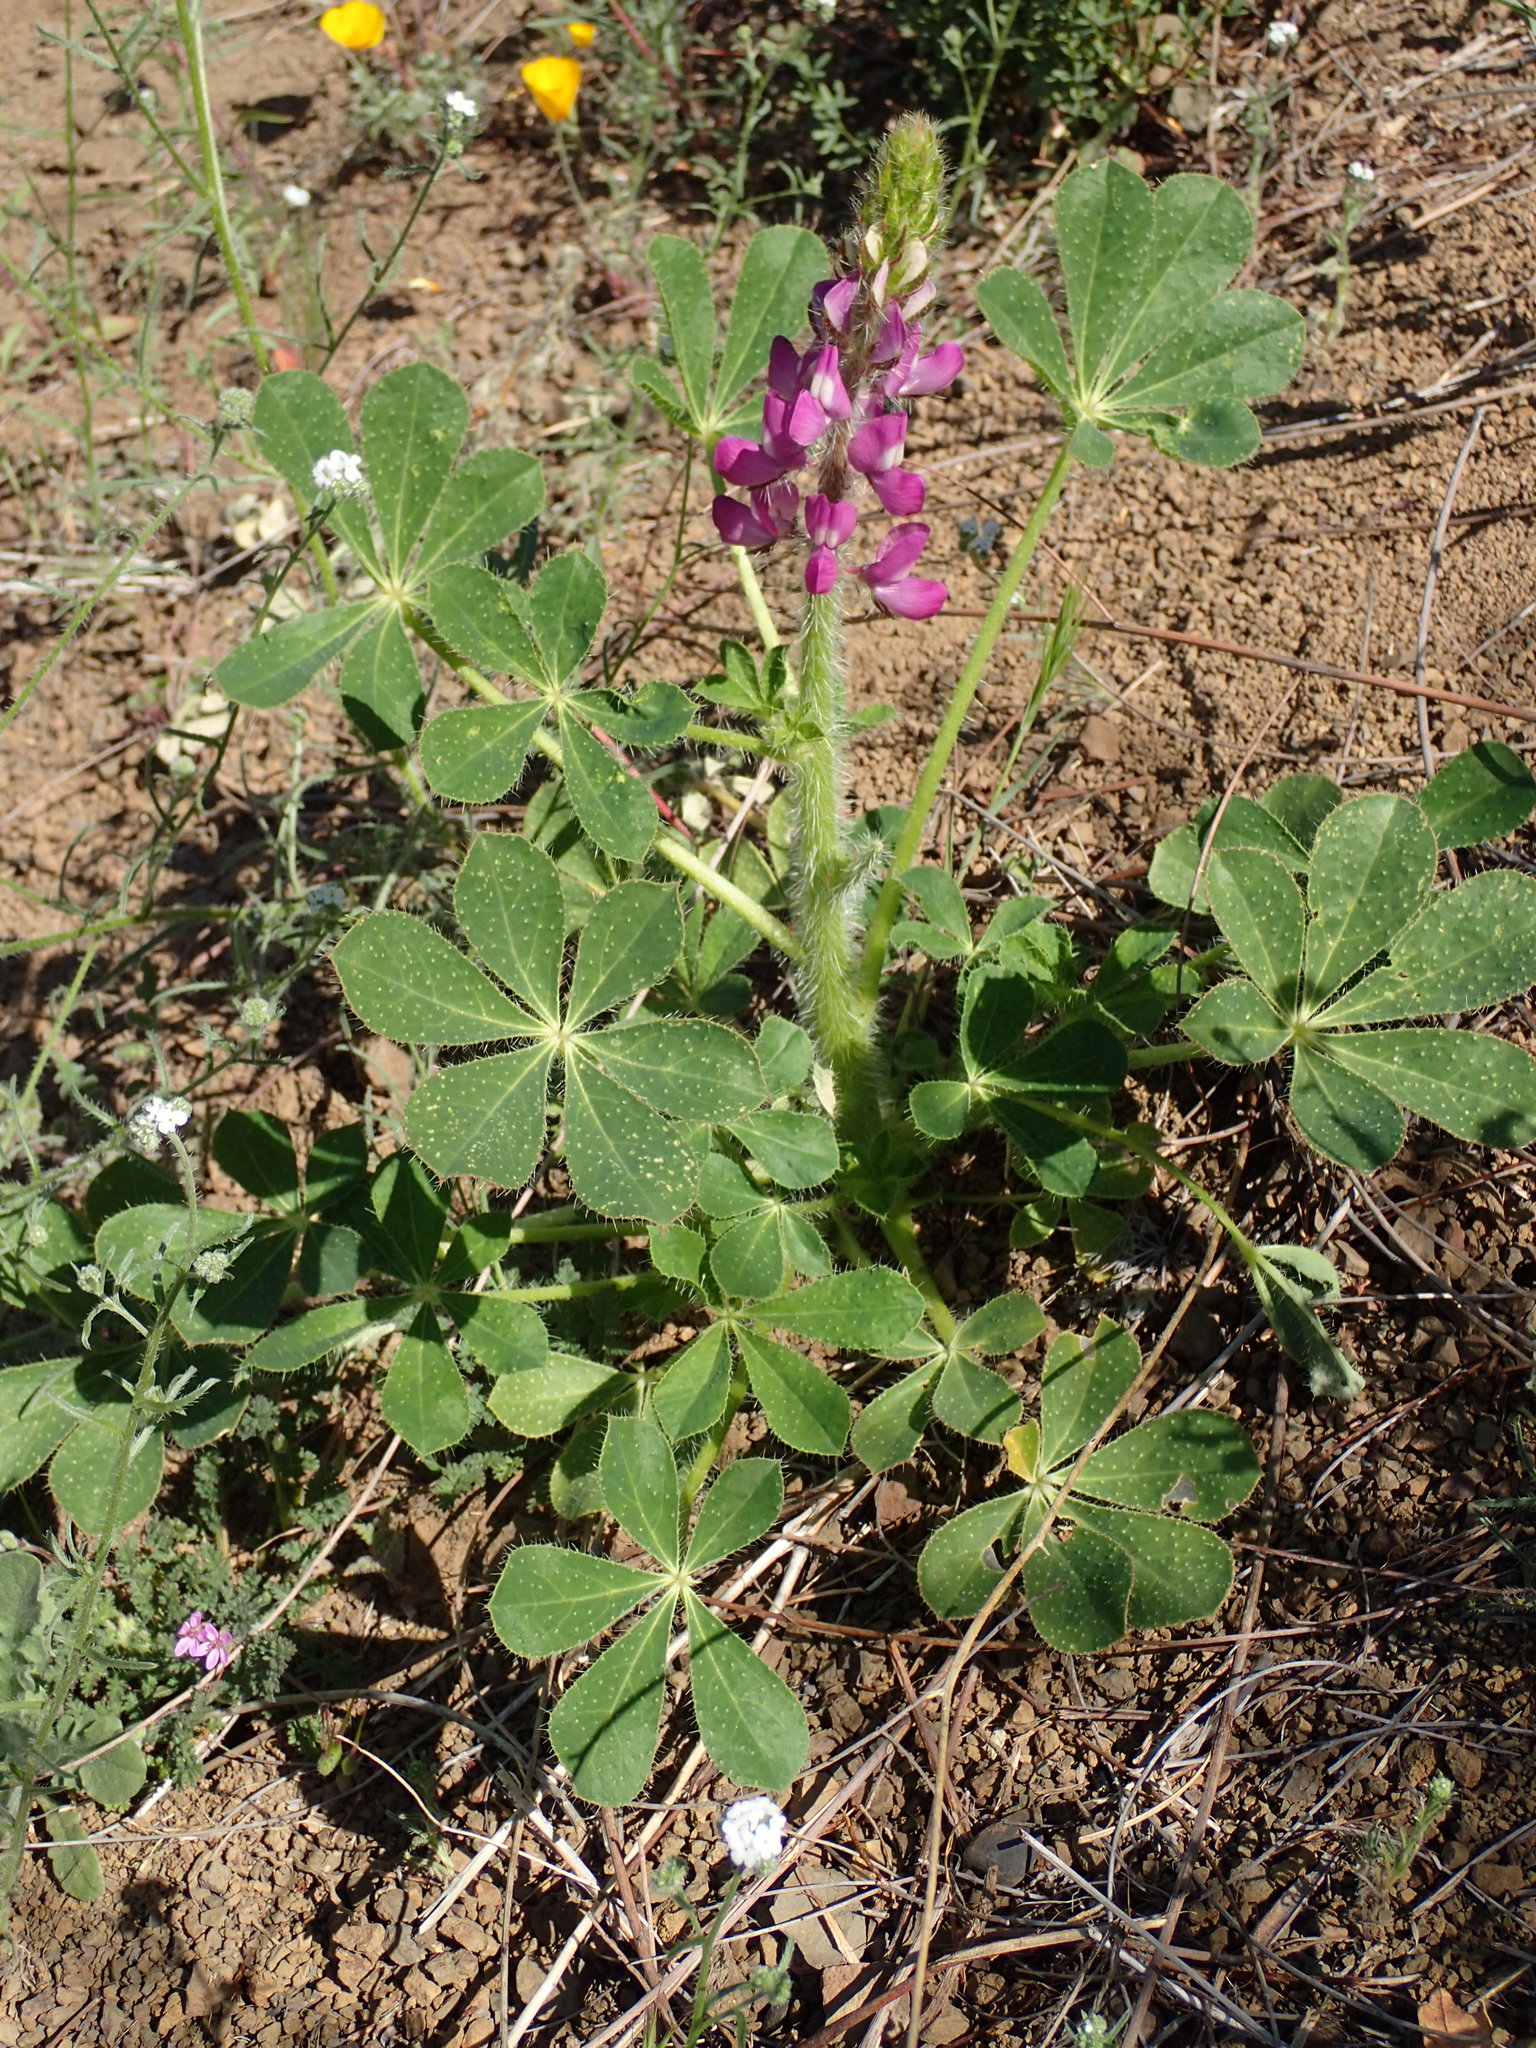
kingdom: Plantae
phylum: Tracheophyta
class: Magnoliopsida
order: Fabales
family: Fabaceae
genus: Lupinus
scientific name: Lupinus hirsutissimus
